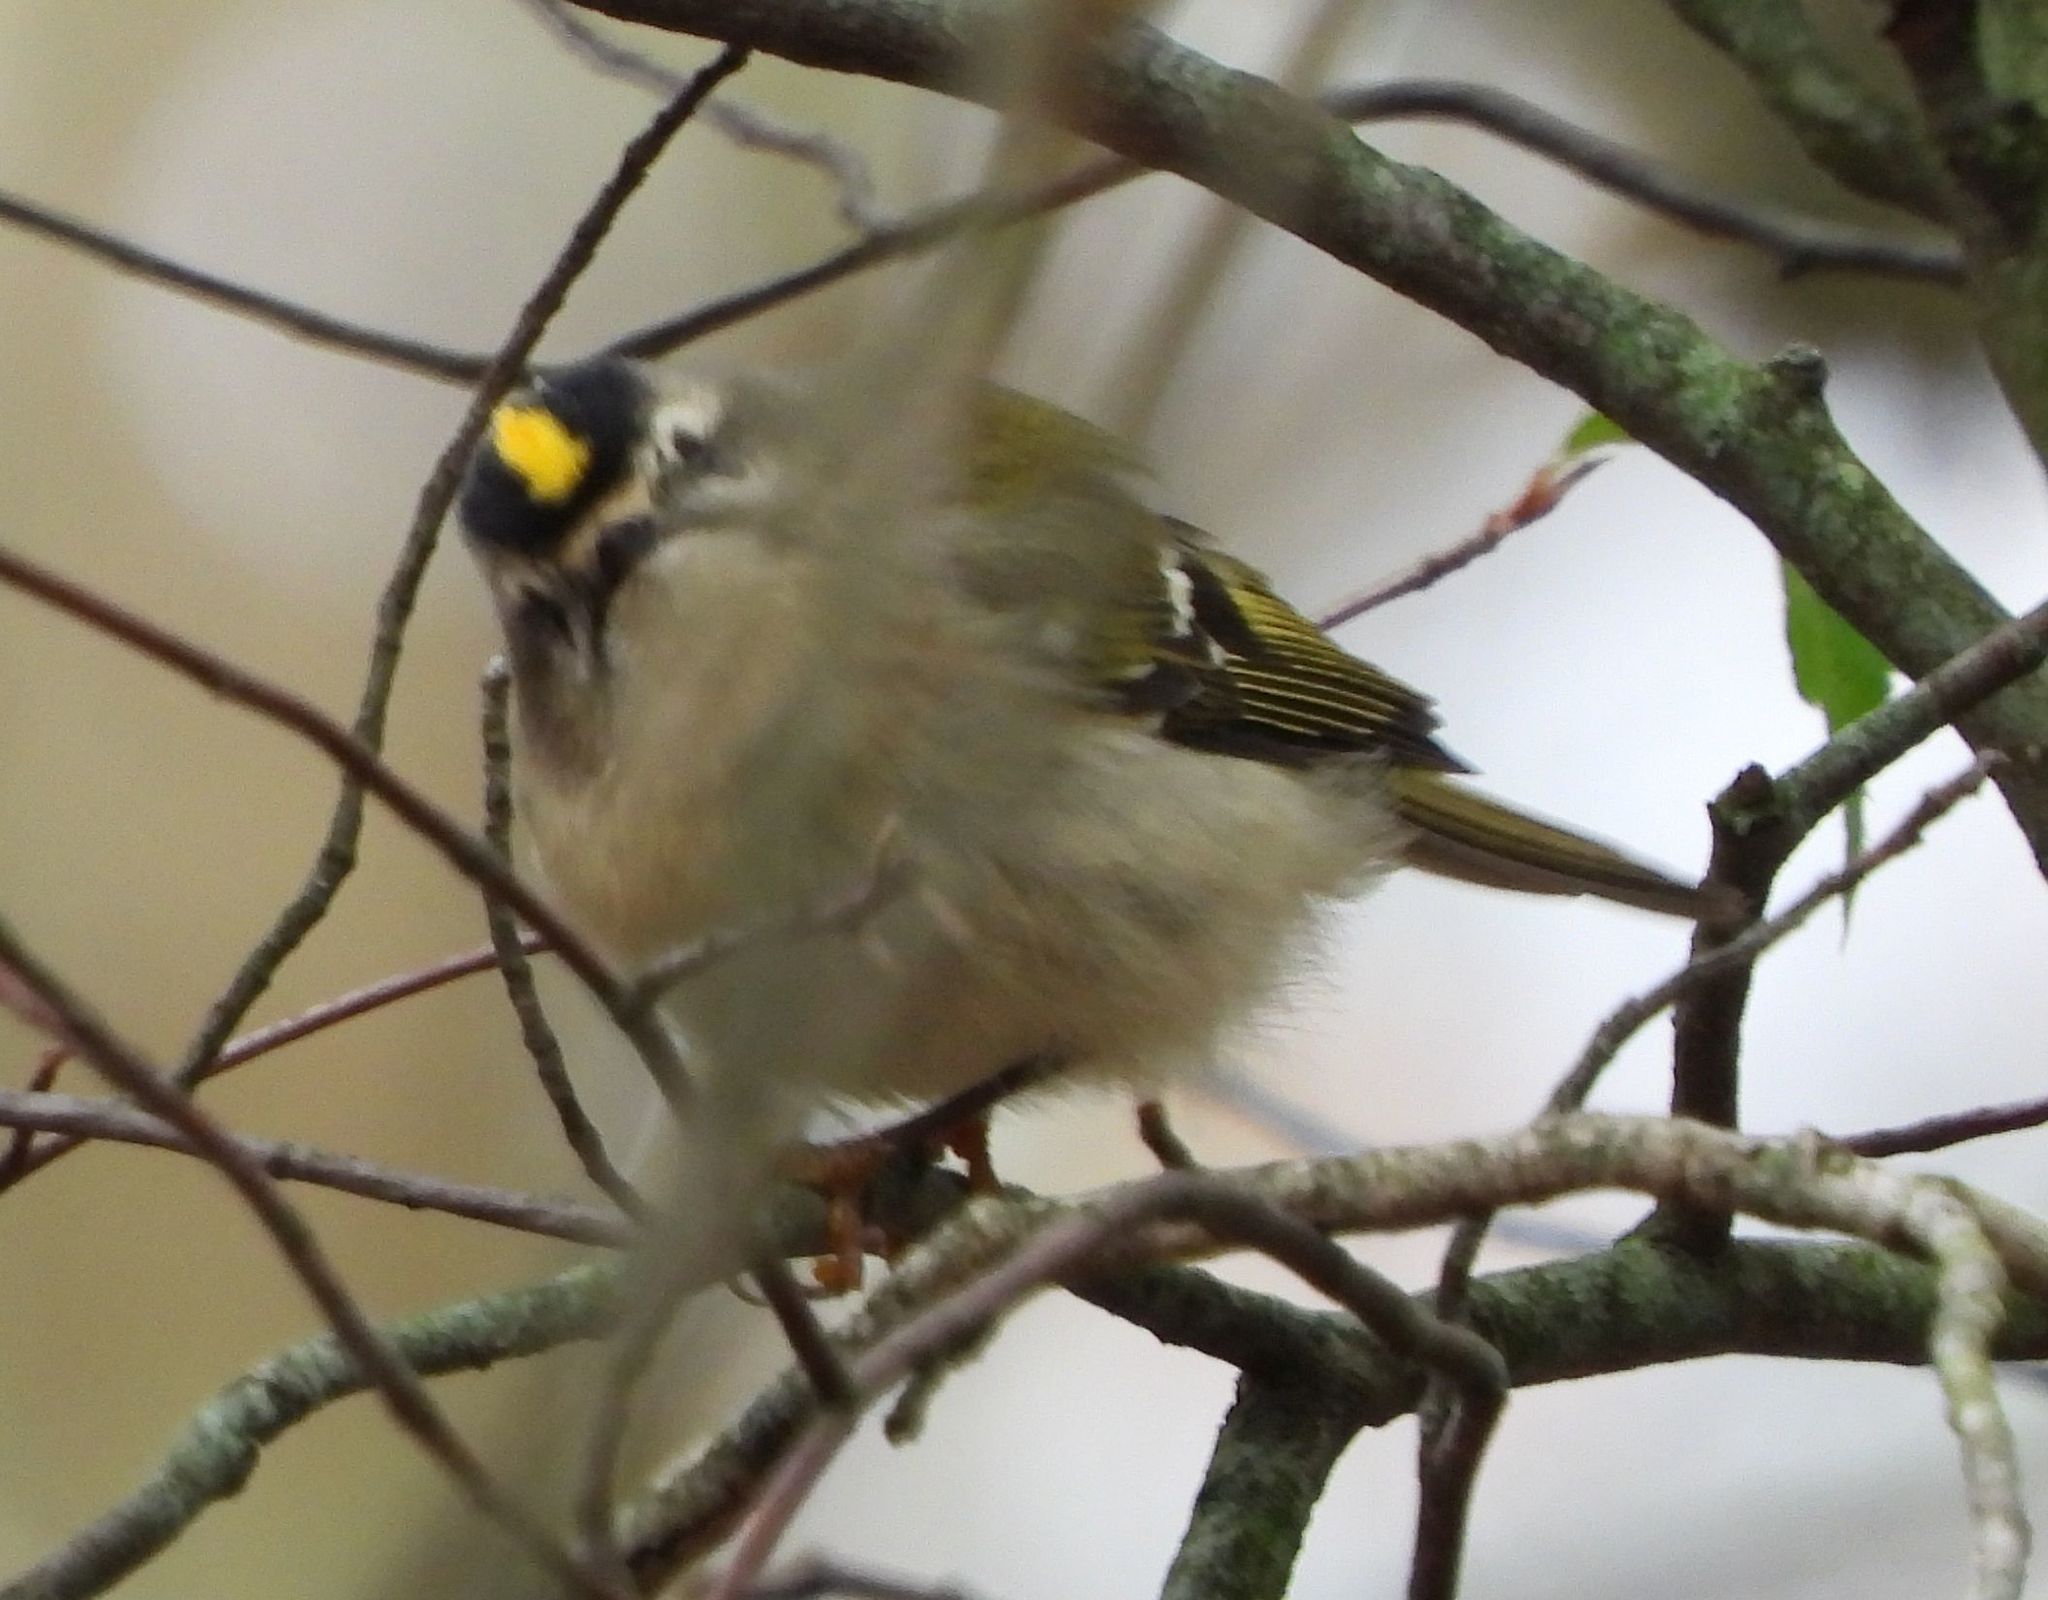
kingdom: Animalia
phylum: Chordata
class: Aves
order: Passeriformes
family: Regulidae
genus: Regulus
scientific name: Regulus satrapa
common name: Golden-crowned kinglet
